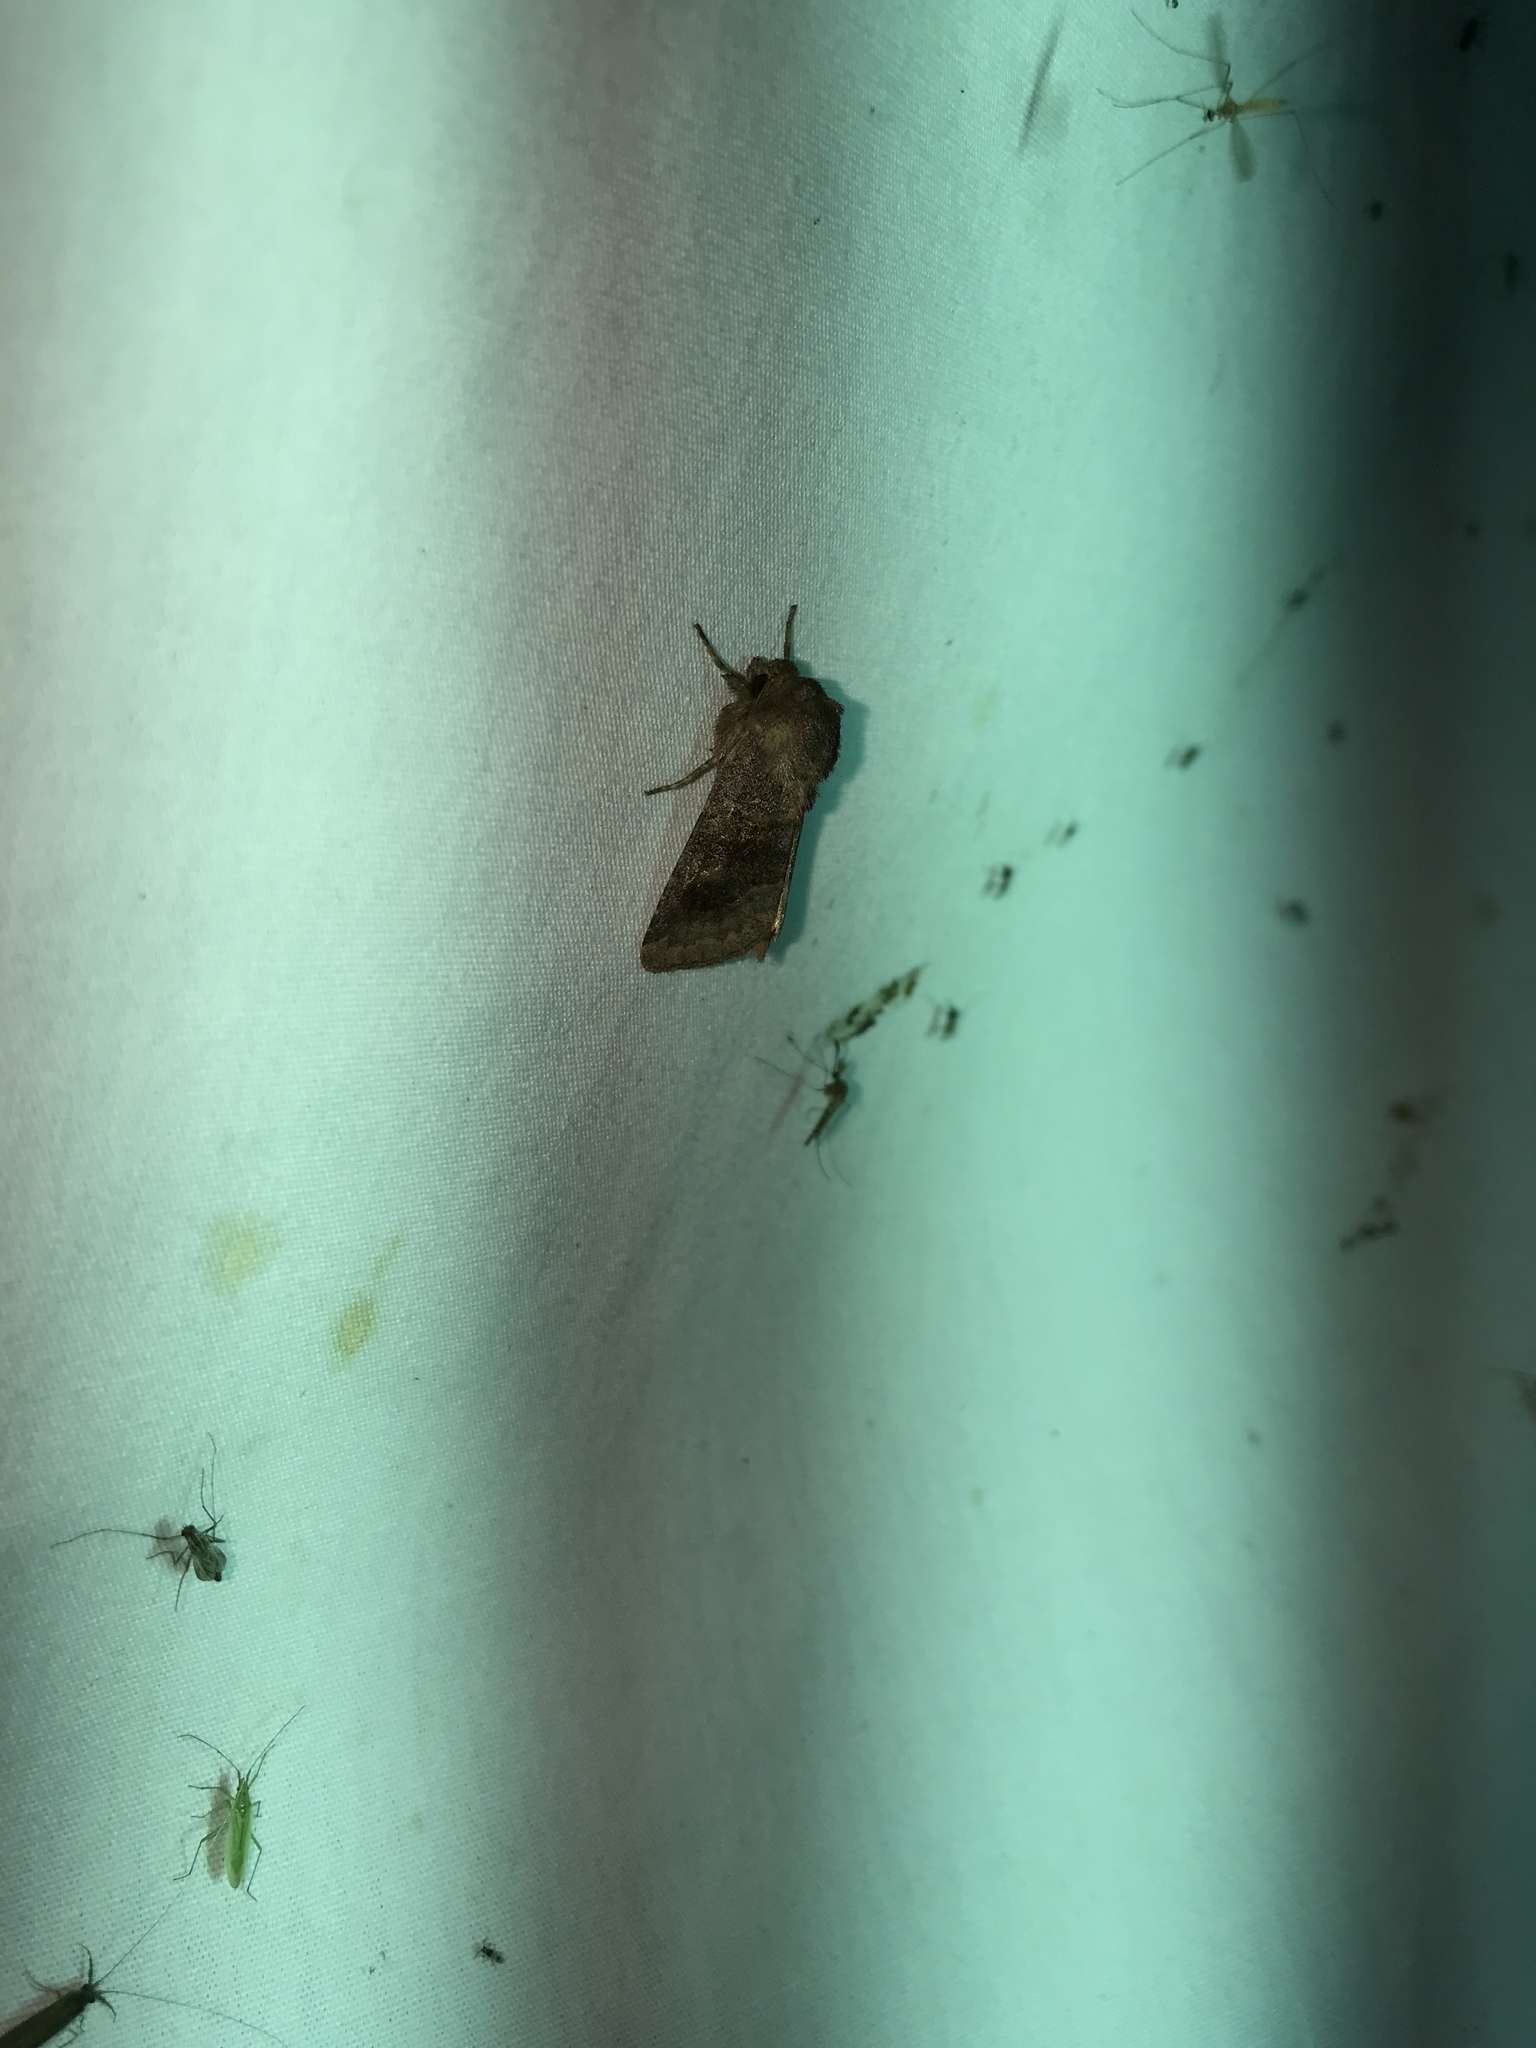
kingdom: Animalia
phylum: Arthropoda
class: Insecta
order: Lepidoptera
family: Noctuidae
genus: Nephelodes
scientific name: Nephelodes minians
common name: Bronzed cutworm
